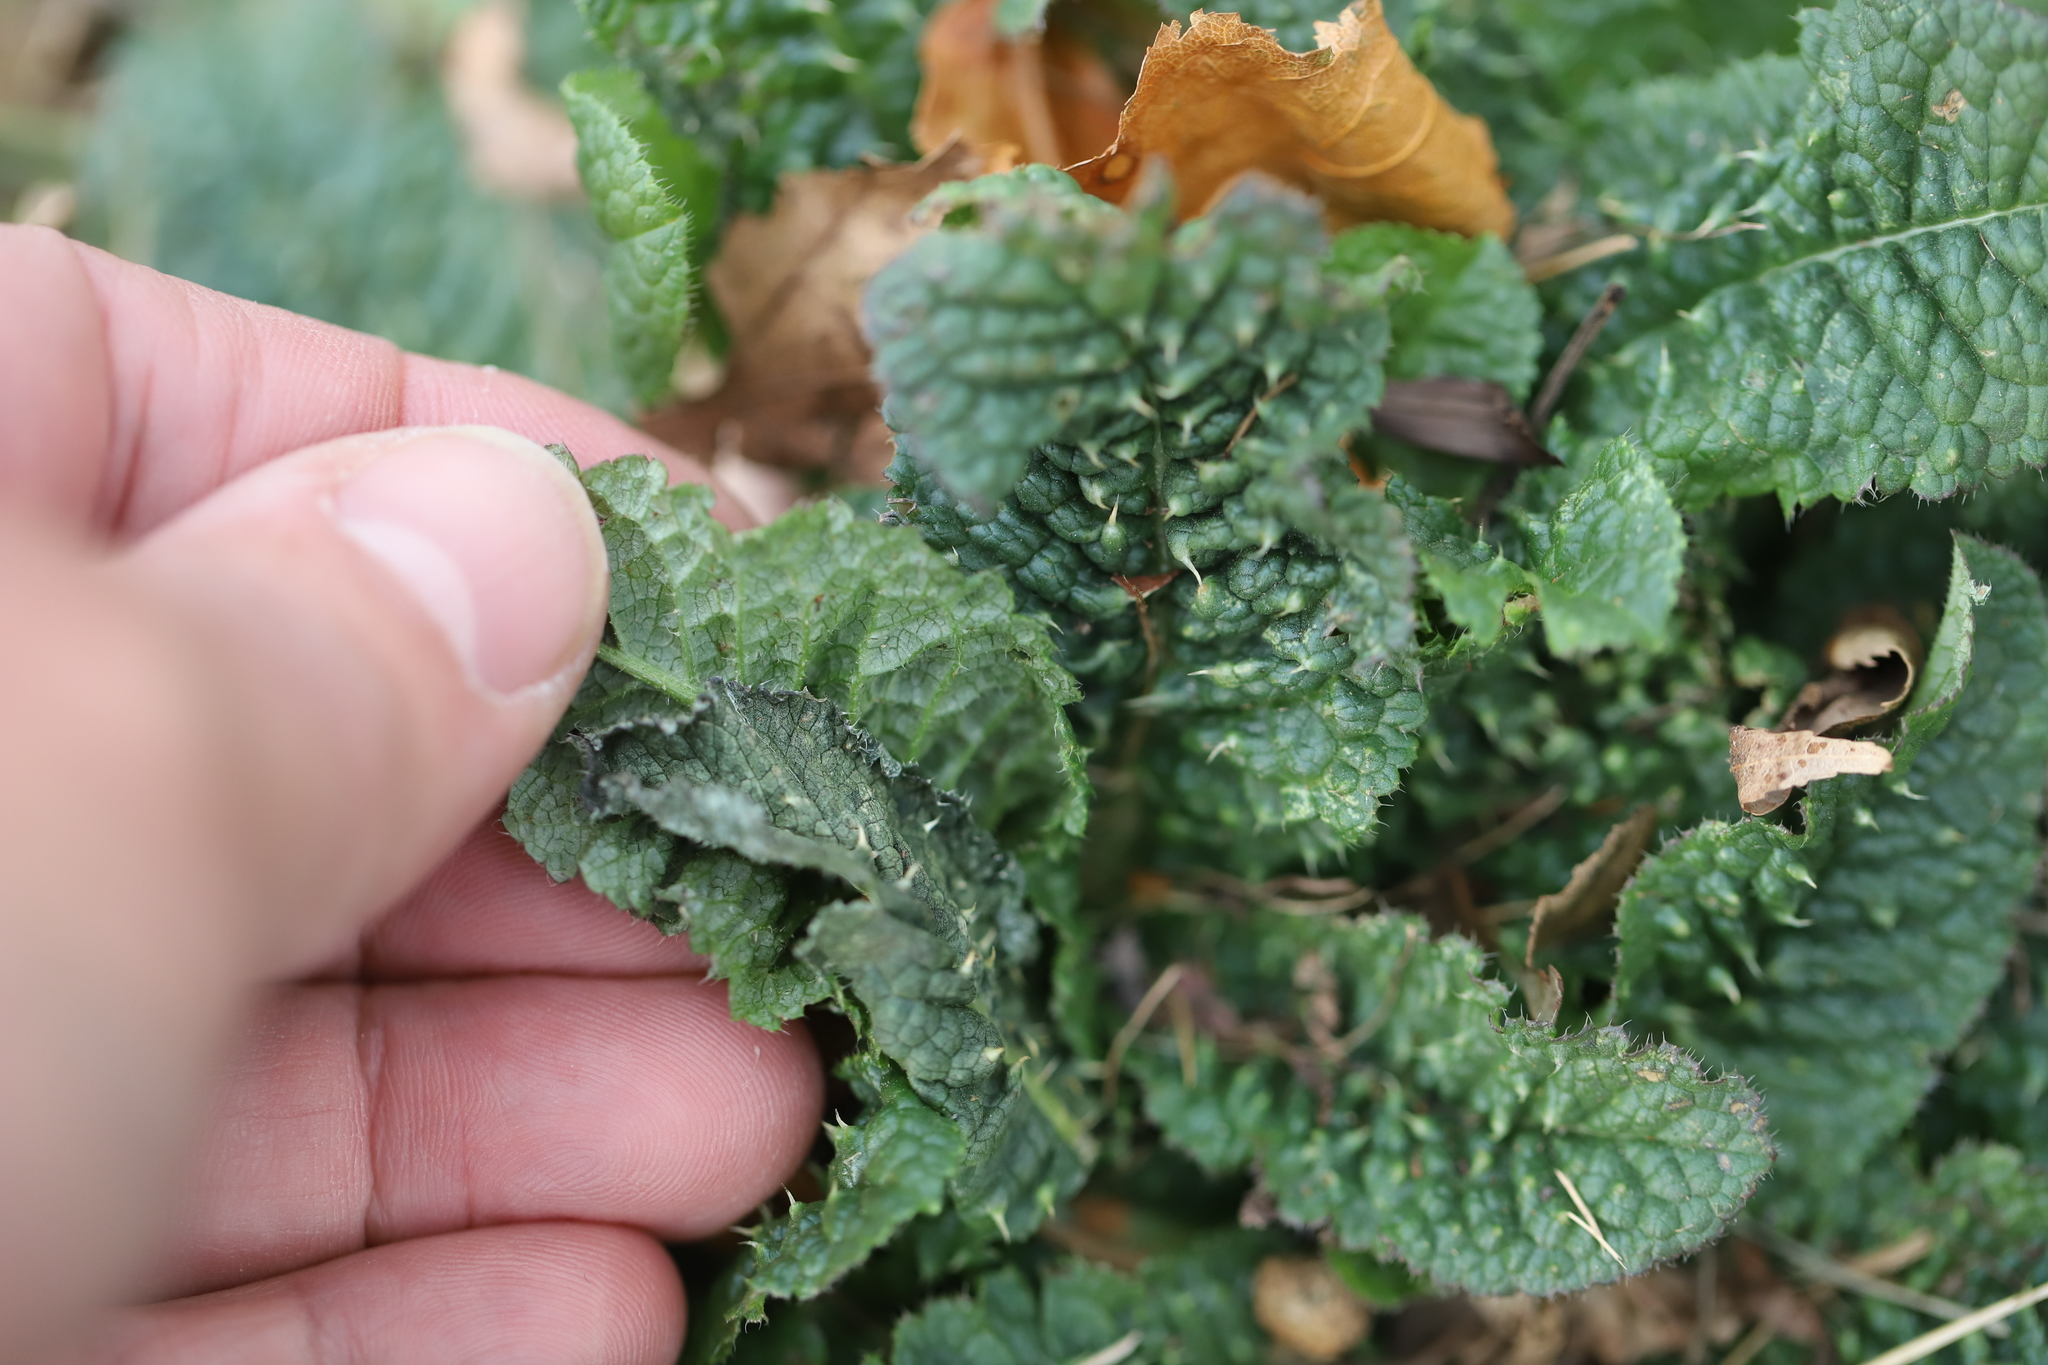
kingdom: Plantae
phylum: Tracheophyta
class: Magnoliopsida
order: Dipsacales
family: Caprifoliaceae
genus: Dipsacus
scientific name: Dipsacus fullonum
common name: Teasel
